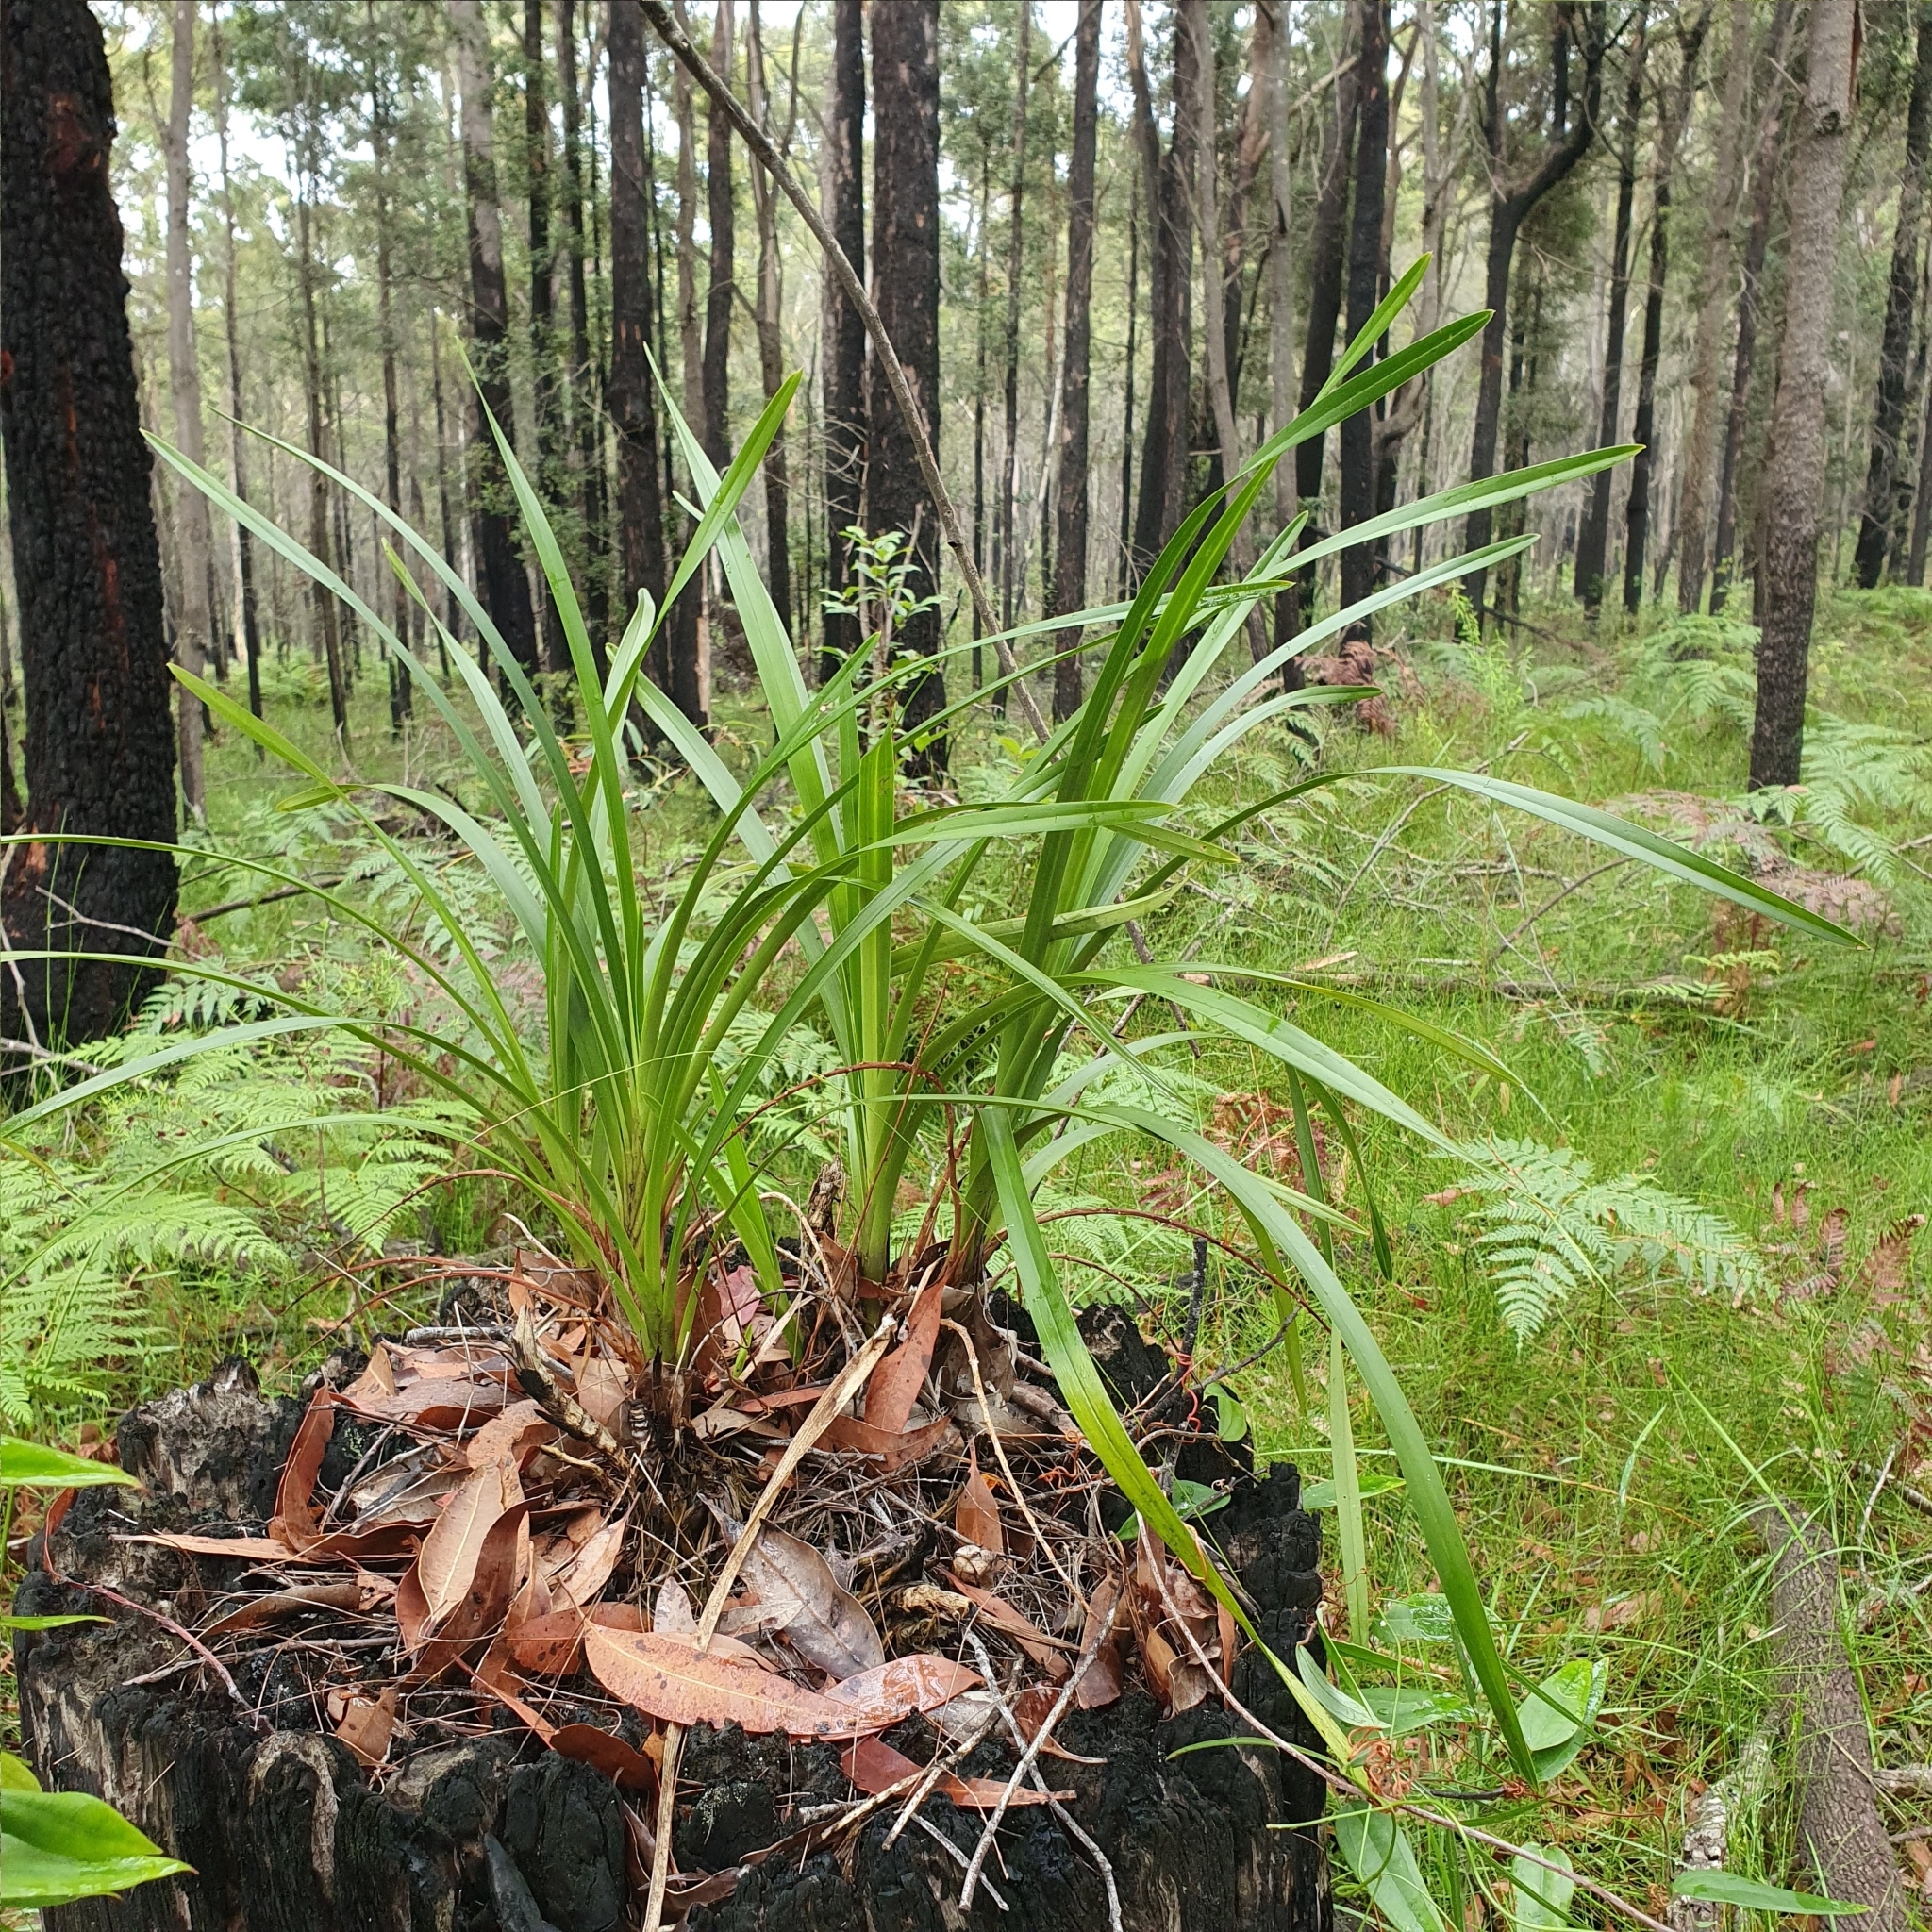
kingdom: Plantae
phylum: Tracheophyta
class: Liliopsida
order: Asparagales
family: Orchidaceae
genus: Cymbidium
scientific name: Cymbidium suave
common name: Snake orchid
